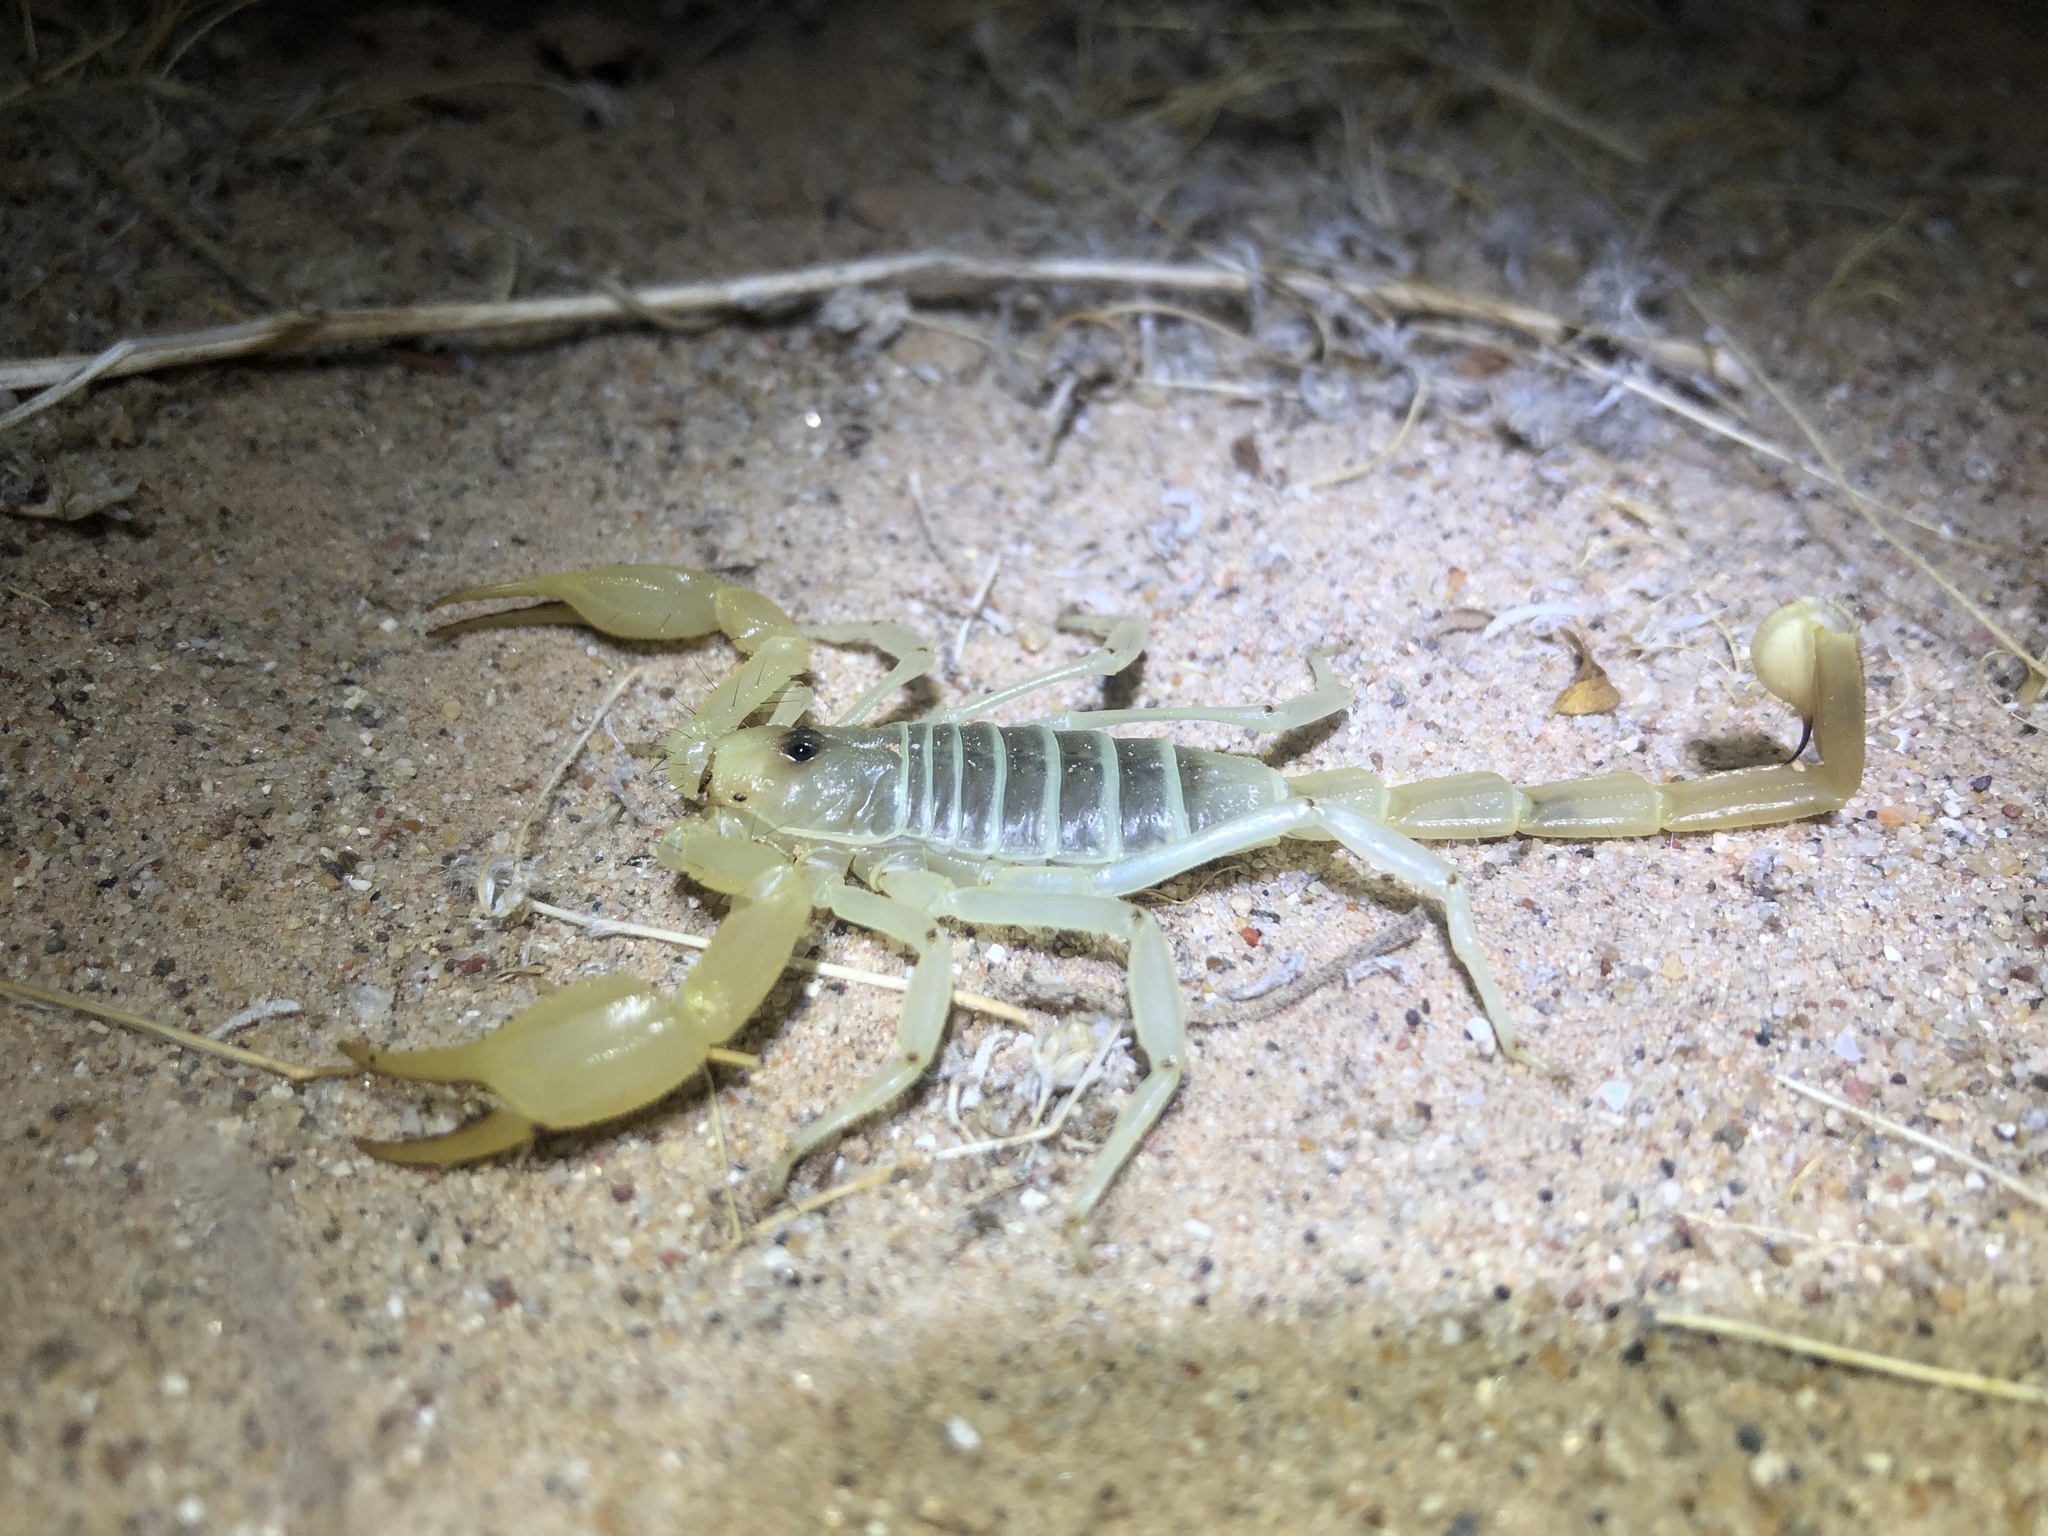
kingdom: Animalia
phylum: Arthropoda
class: Arachnida
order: Scorpiones
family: Vaejovidae
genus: Smeringurus
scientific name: Smeringurus mesaensis
